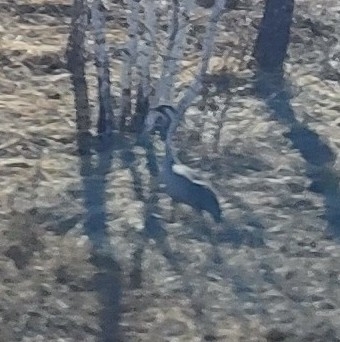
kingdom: Animalia
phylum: Chordata
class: Aves
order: Gruiformes
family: Gruidae
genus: Grus
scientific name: Grus grus
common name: Common crane
